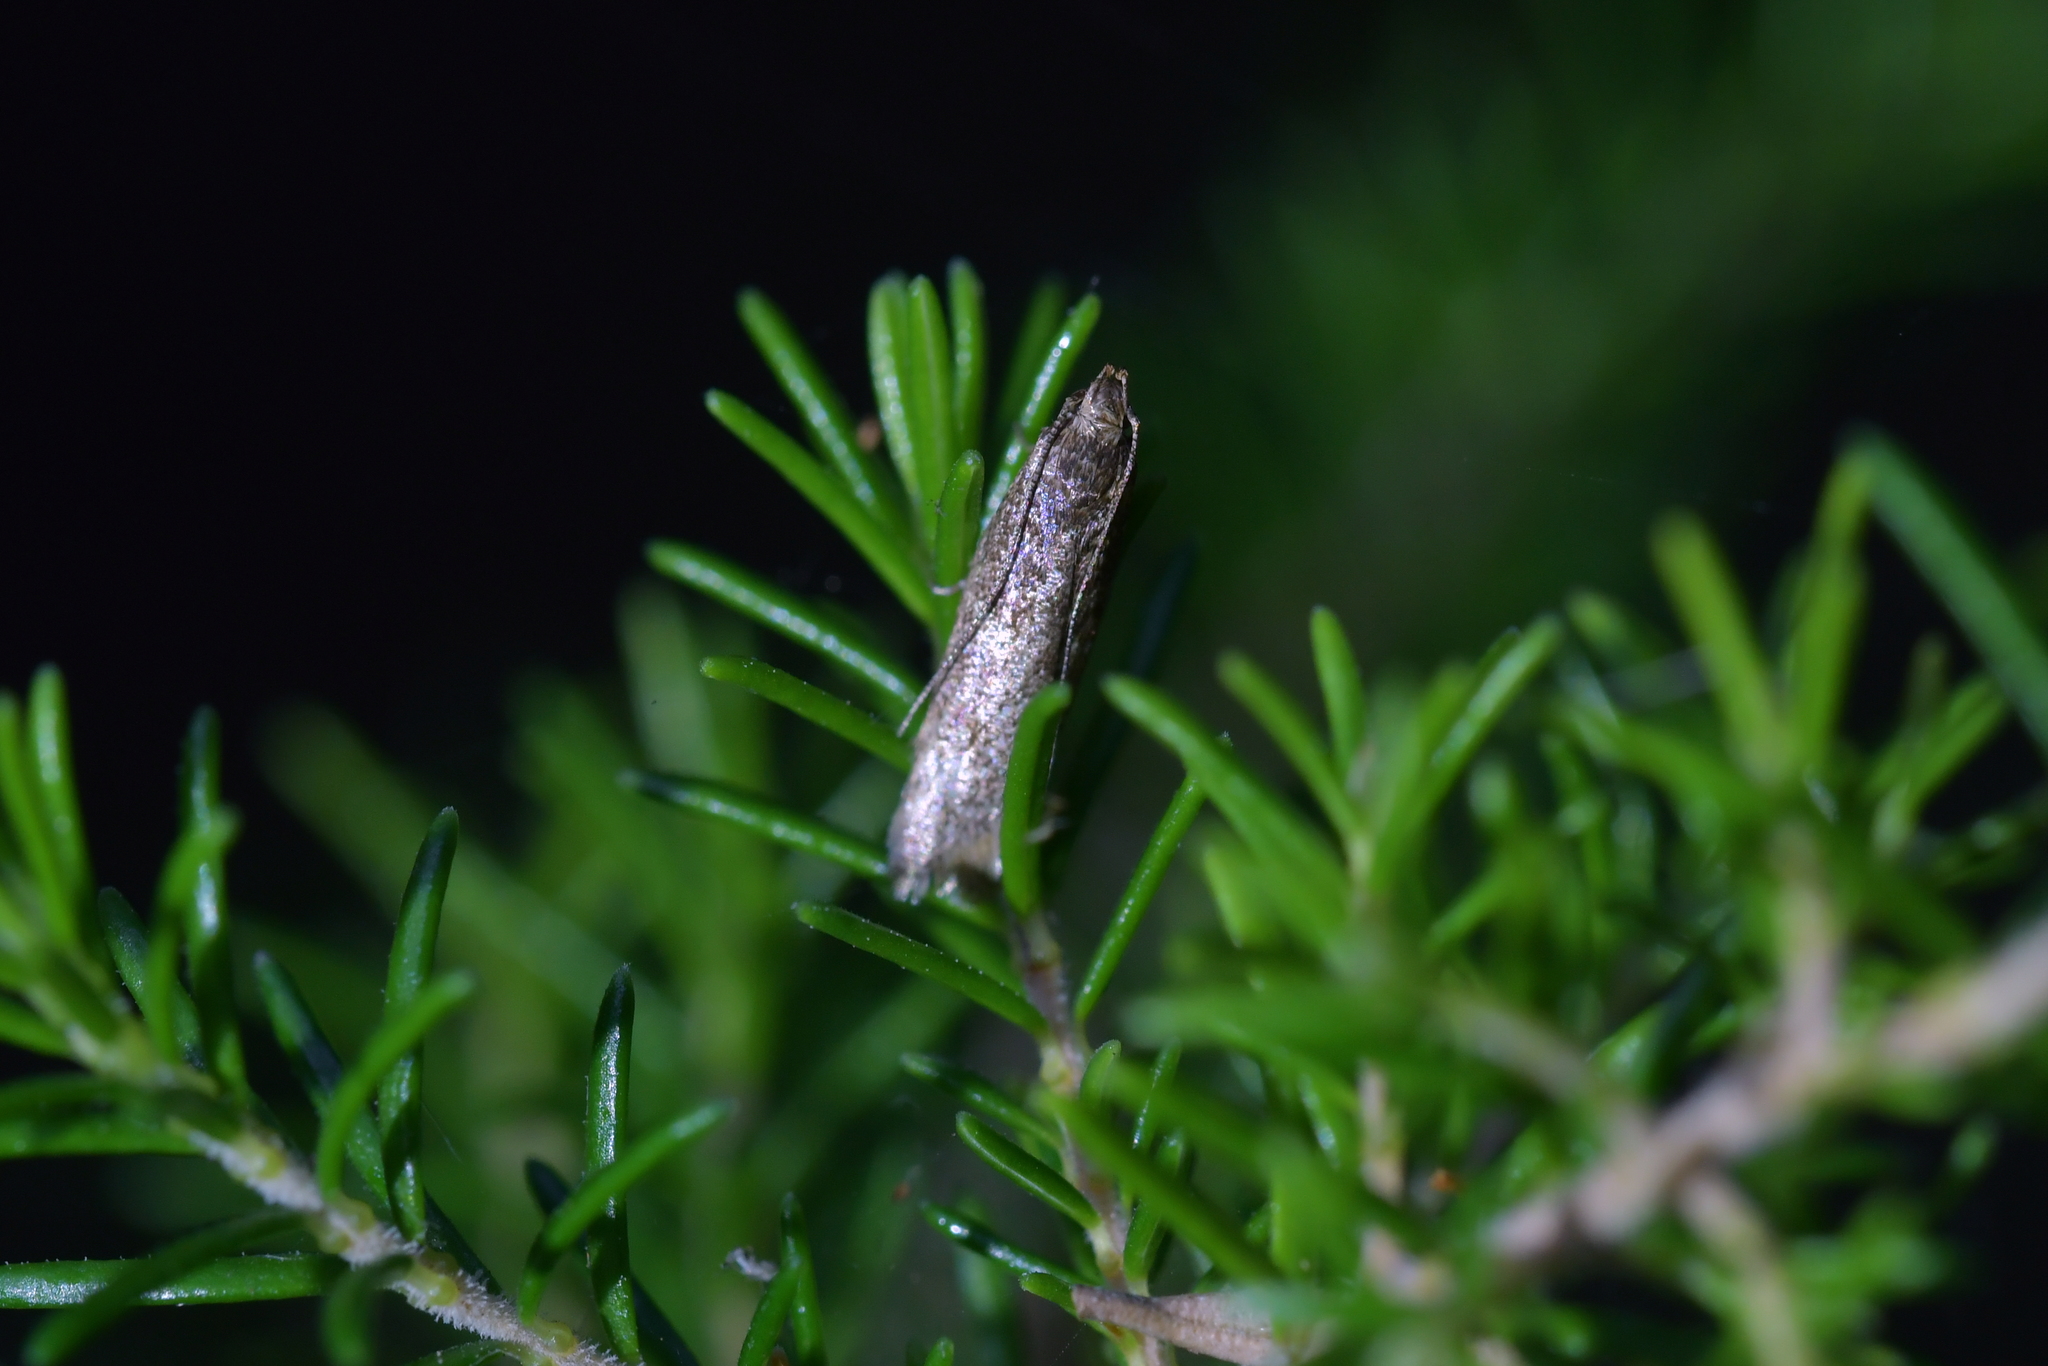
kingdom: Animalia
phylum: Arthropoda
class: Insecta
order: Lepidoptera
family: Oecophoridae
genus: Gymnobathra
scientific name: Gymnobathra tholodella
